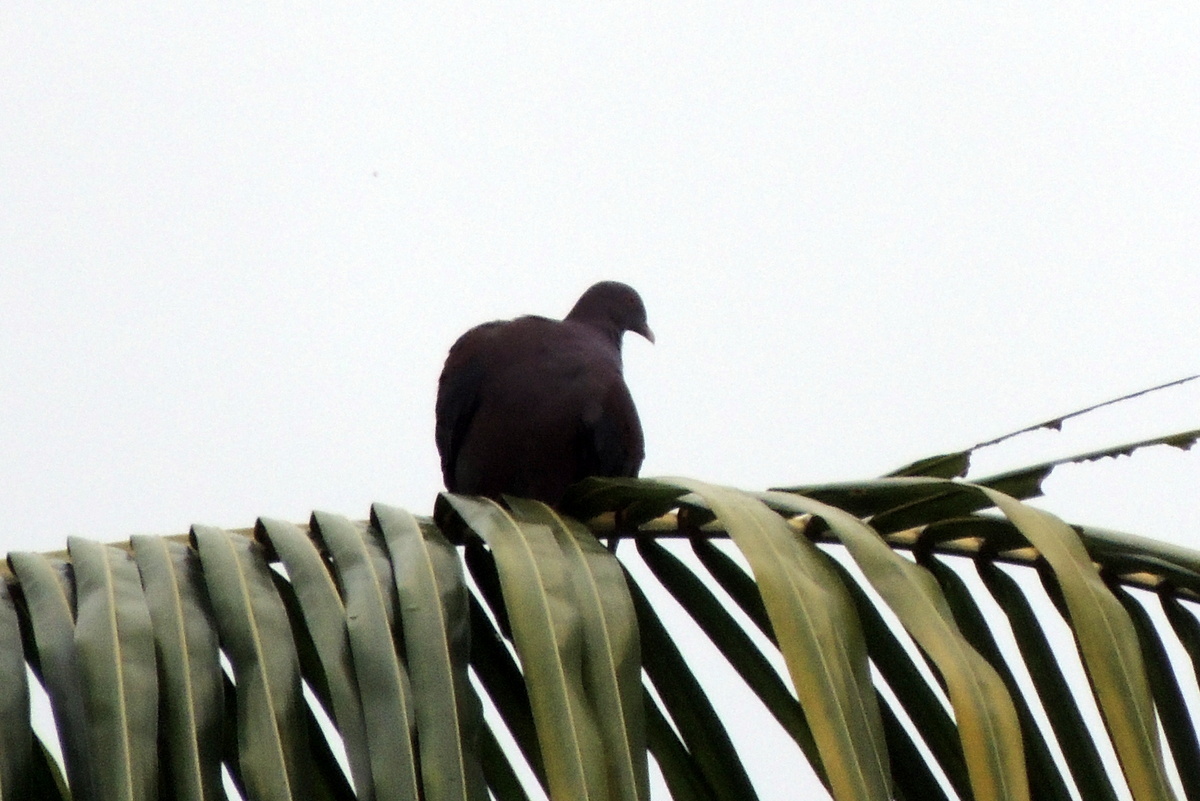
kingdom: Animalia
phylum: Chordata
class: Aves
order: Columbiformes
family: Columbidae
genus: Patagioenas
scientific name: Patagioenas flavirostris
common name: Red-billed pigeon
